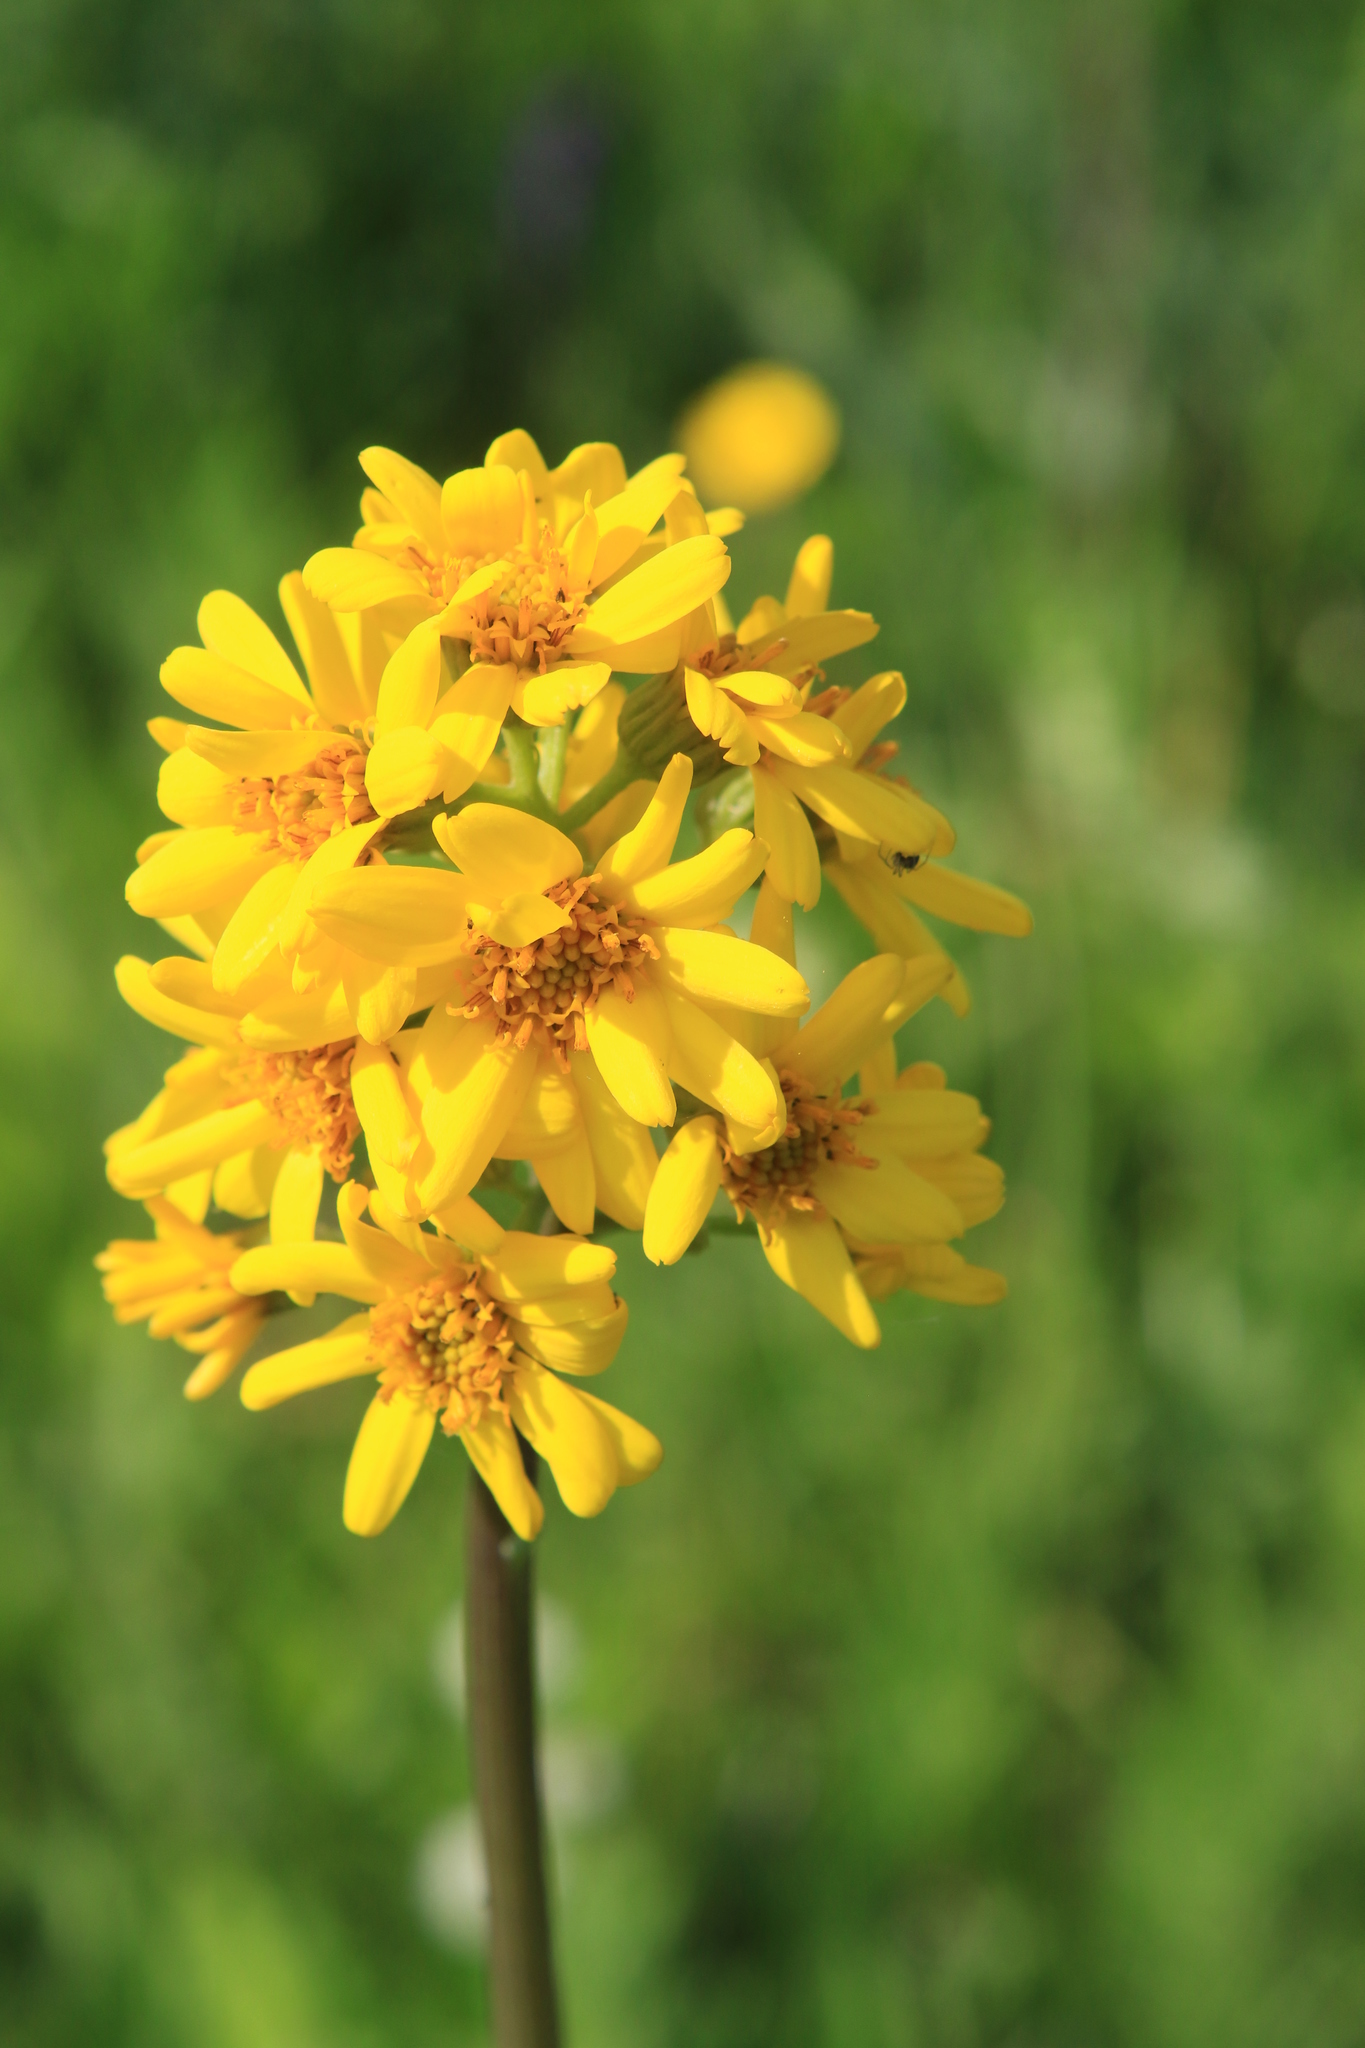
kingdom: Plantae
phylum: Tracheophyta
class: Magnoliopsida
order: Asterales
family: Asteraceae
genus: Ligularia
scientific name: Ligularia glauca
